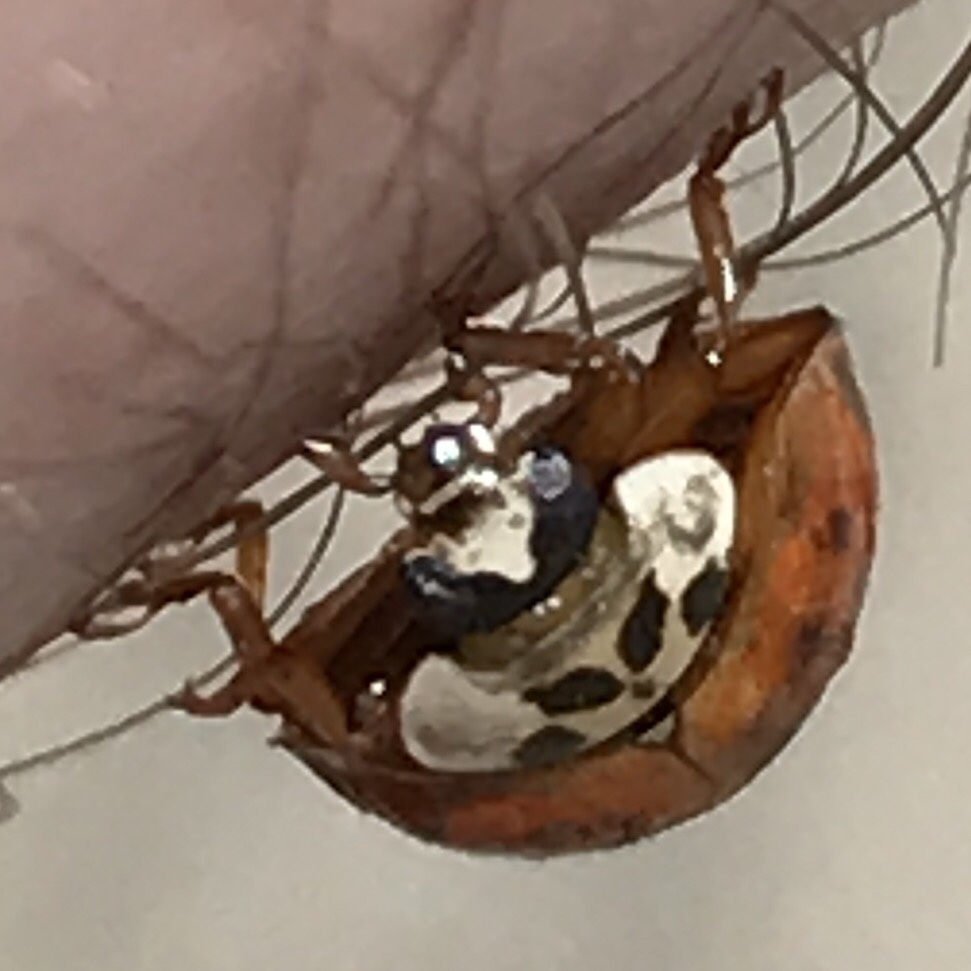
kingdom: Animalia
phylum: Arthropoda
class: Insecta
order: Coleoptera
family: Coccinellidae
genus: Harmonia
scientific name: Harmonia axyridis
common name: Harlequin ladybird
